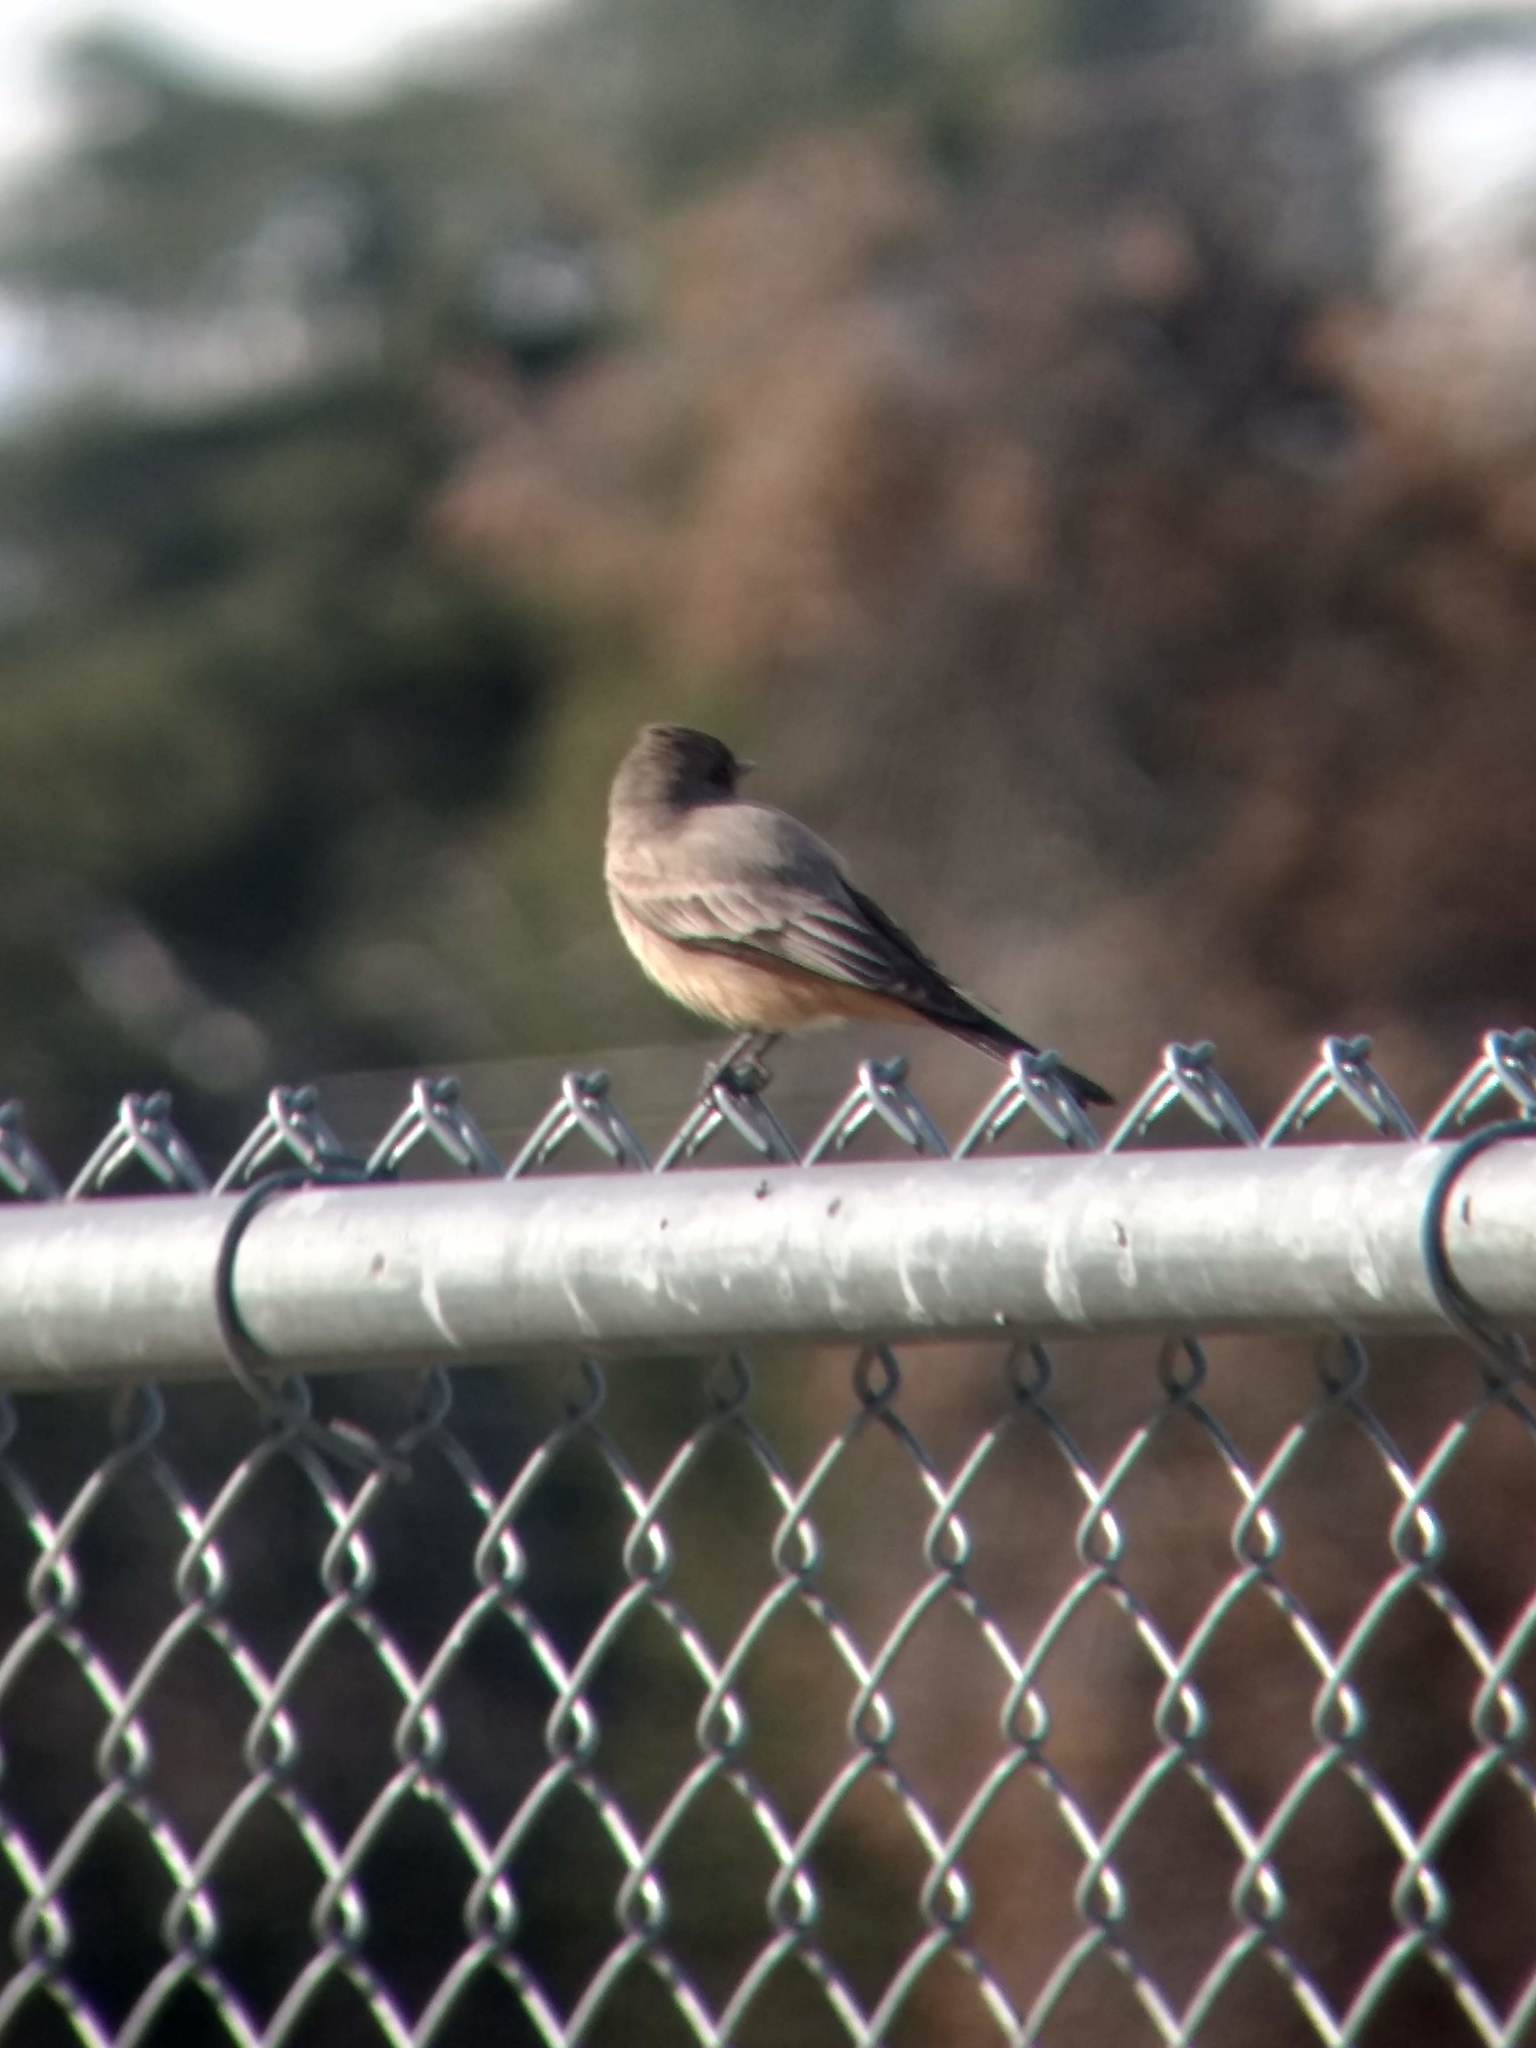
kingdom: Animalia
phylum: Chordata
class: Aves
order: Passeriformes
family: Tyrannidae
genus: Sayornis
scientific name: Sayornis saya
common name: Say's phoebe
